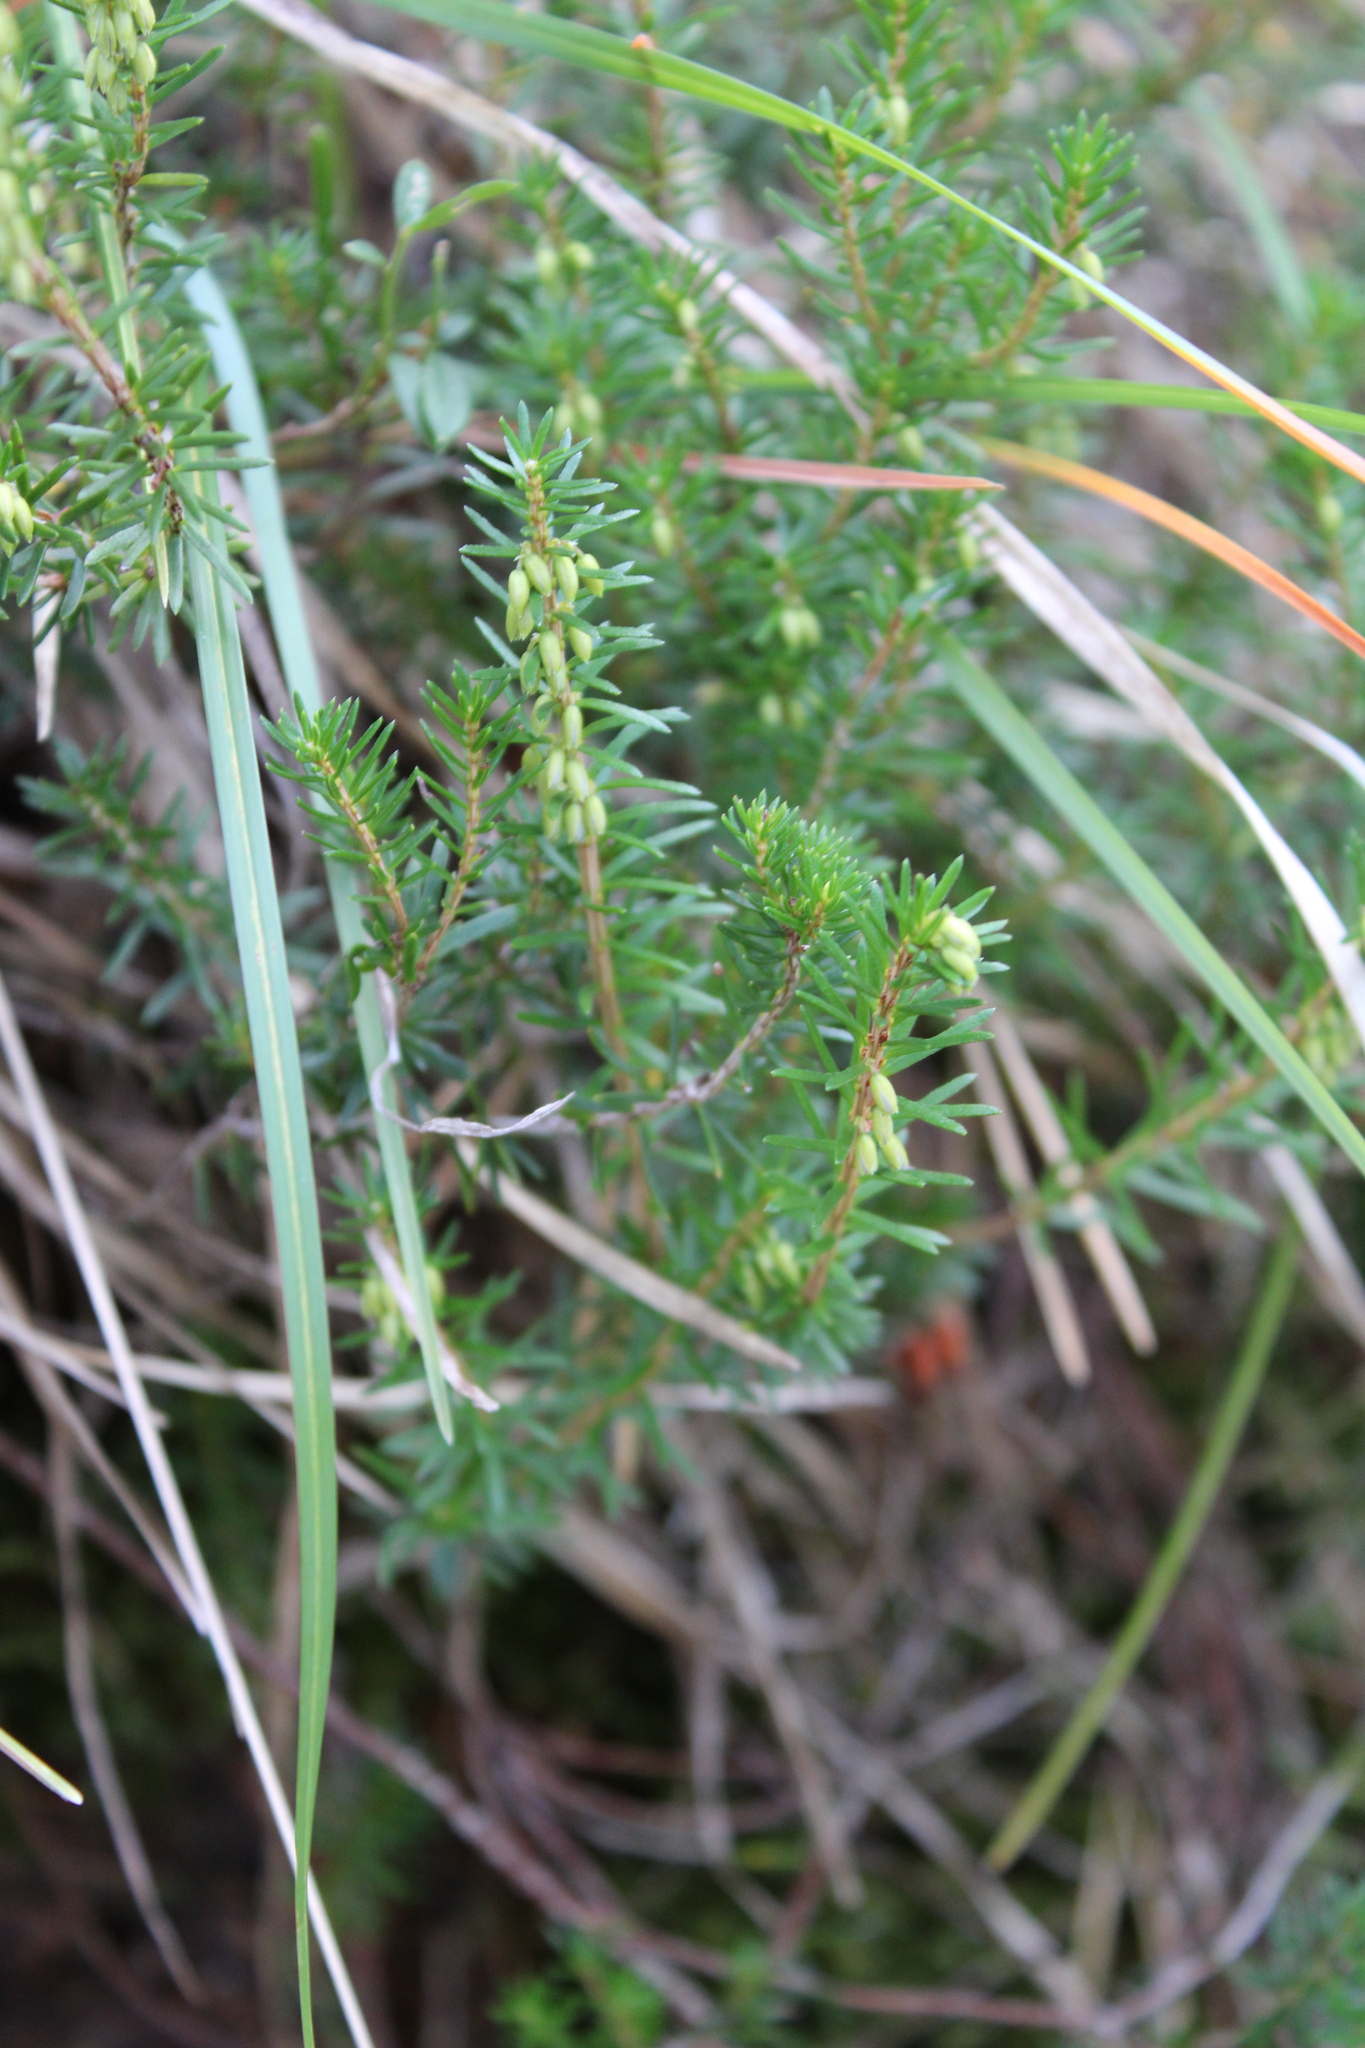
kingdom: Plantae
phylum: Tracheophyta
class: Magnoliopsida
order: Ericales
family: Ericaceae
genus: Erica
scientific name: Erica carnea
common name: Winter heath
